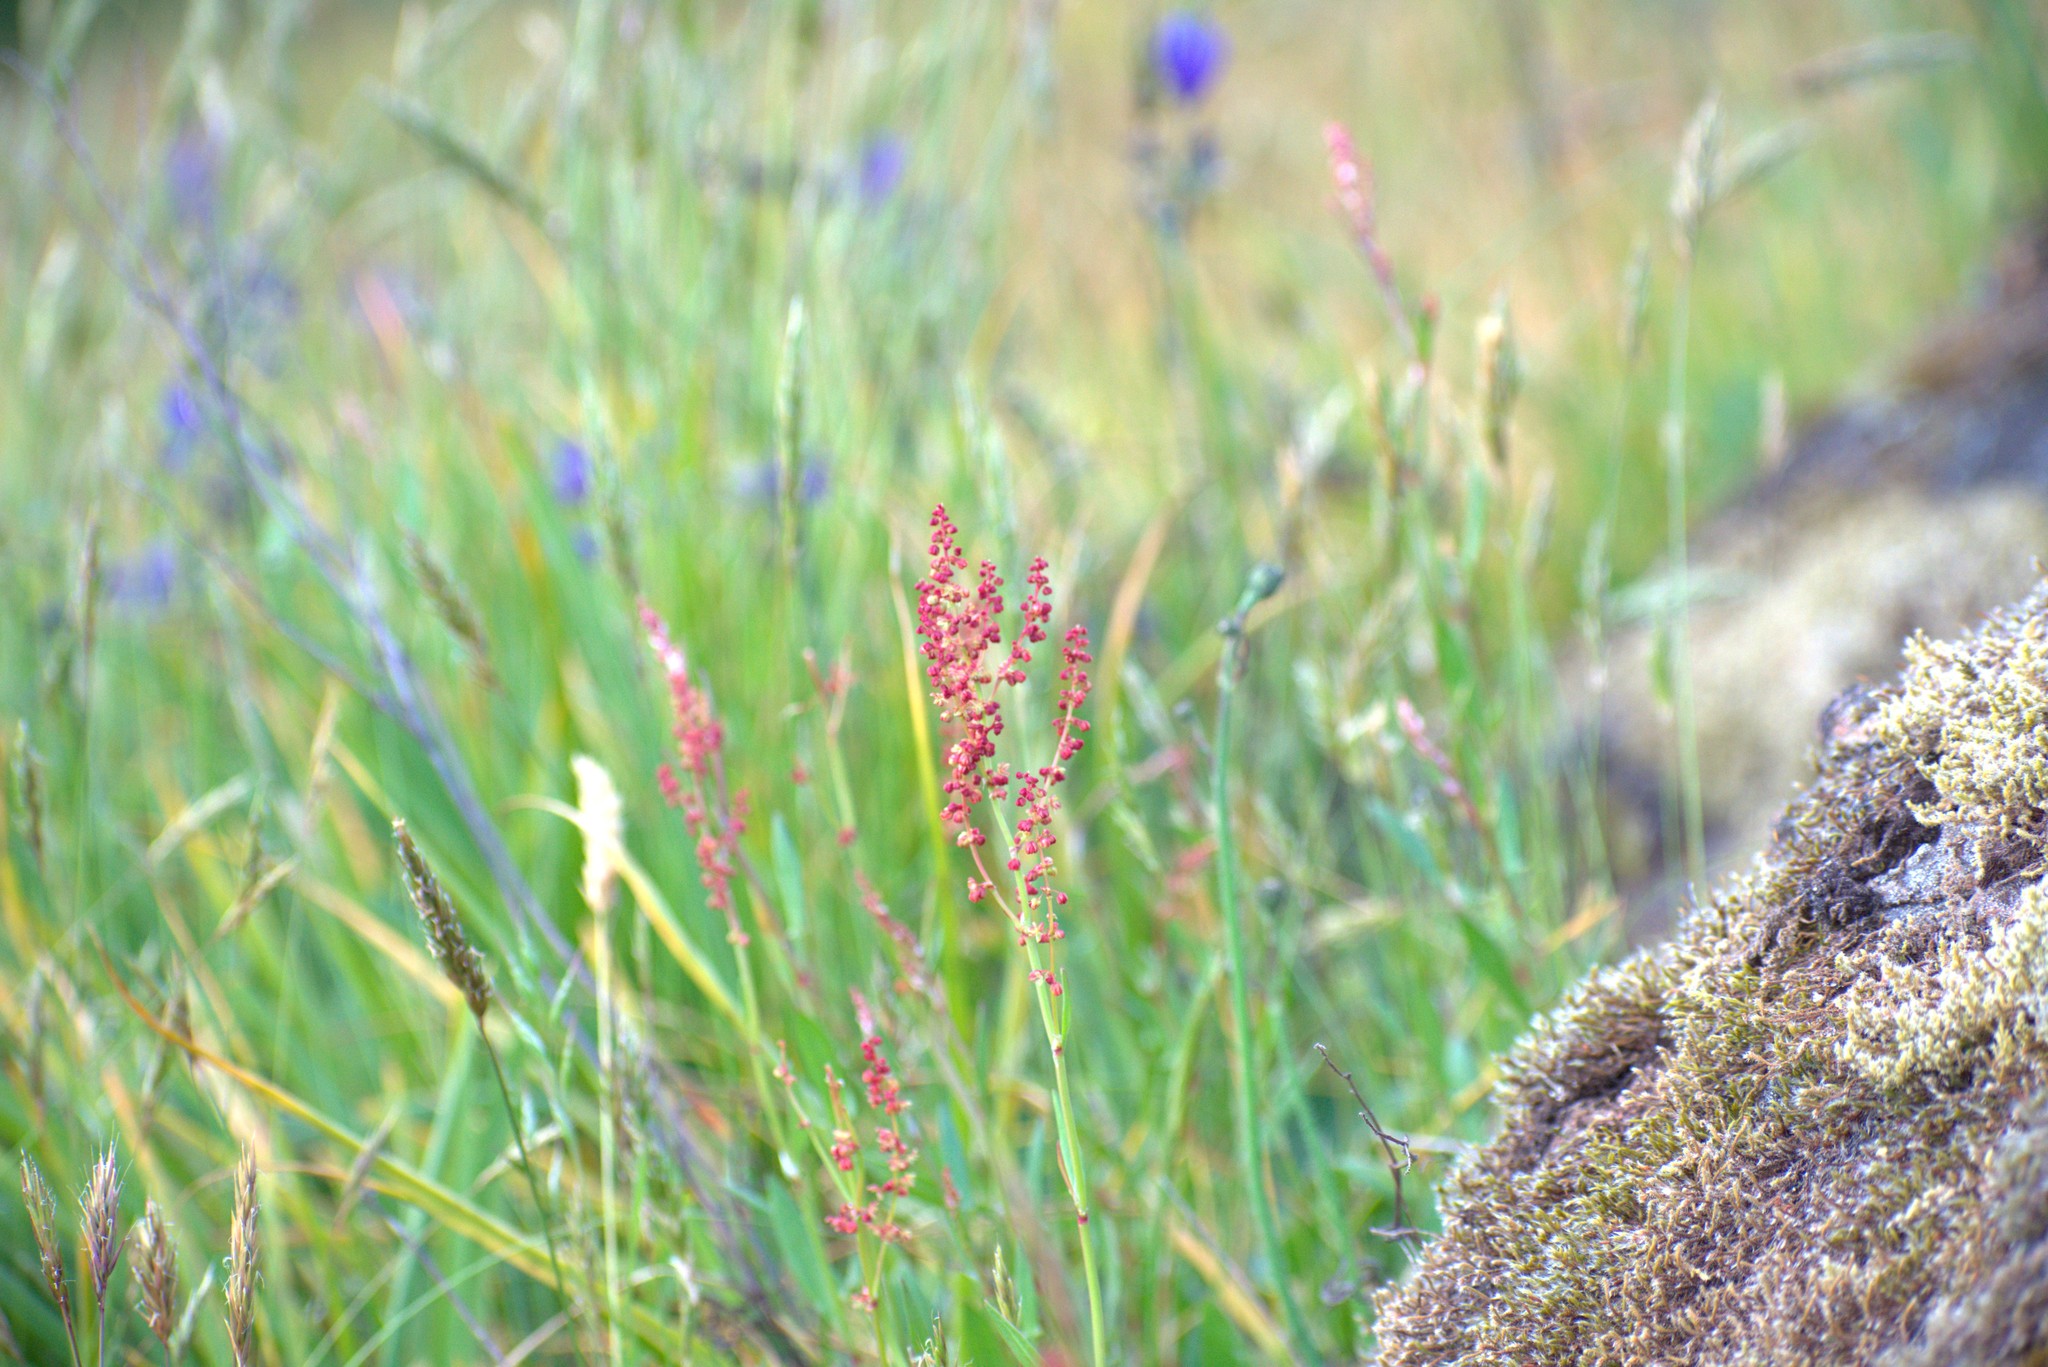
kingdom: Plantae
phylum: Tracheophyta
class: Magnoliopsida
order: Caryophyllales
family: Polygonaceae
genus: Rumex
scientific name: Rumex crispus
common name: Curled dock
